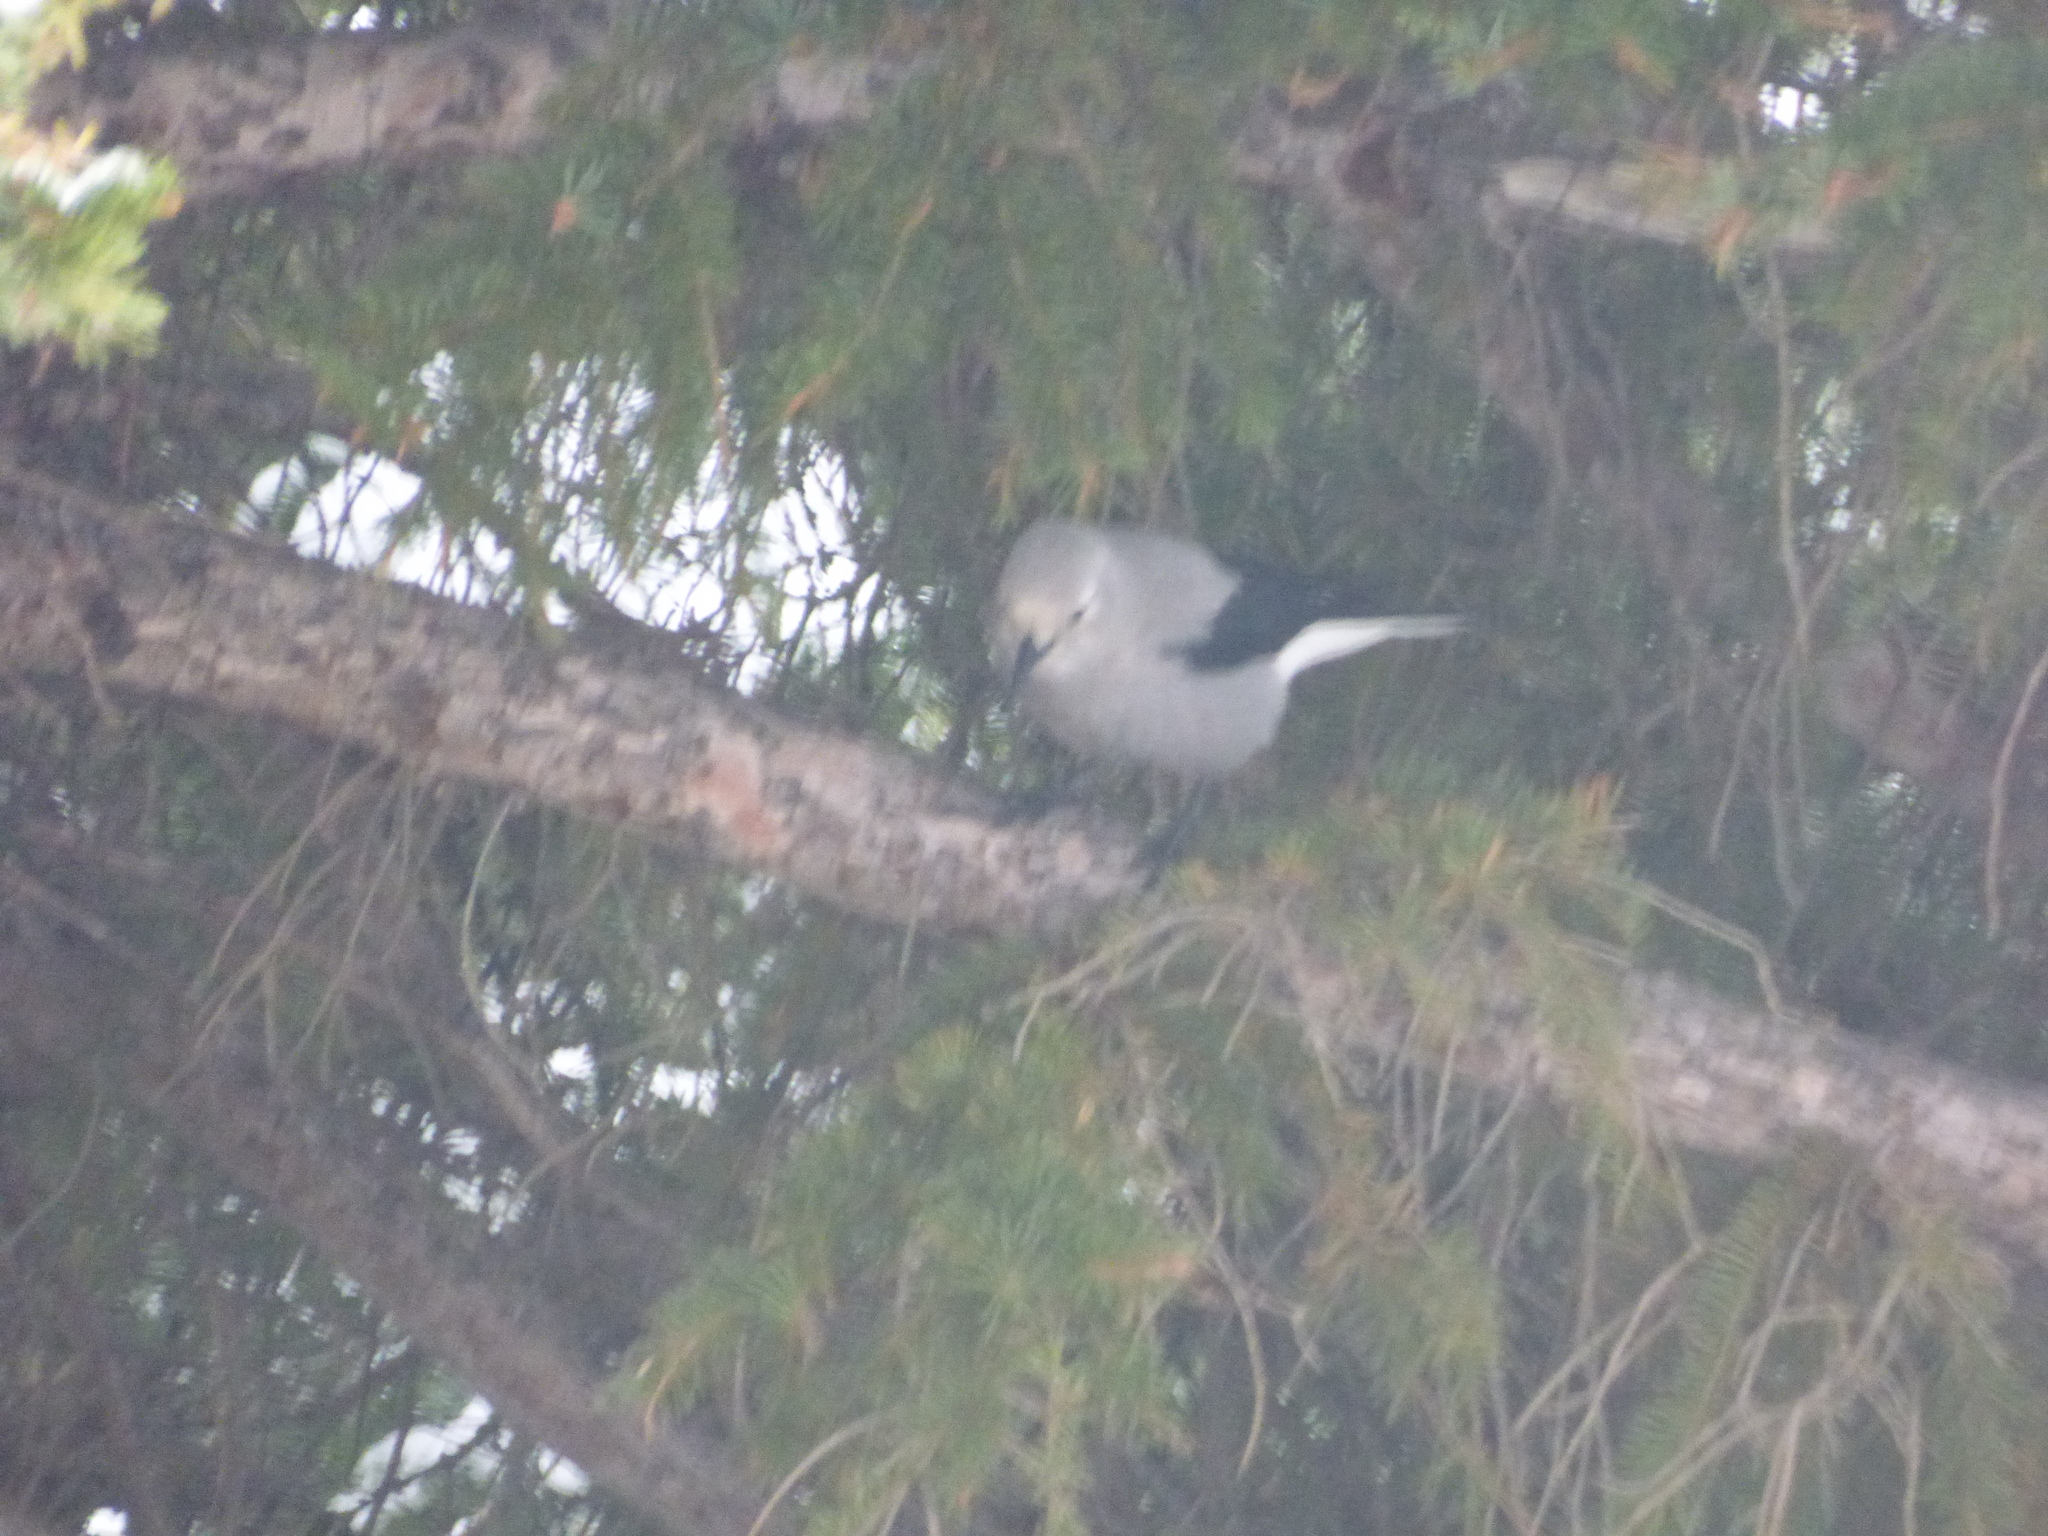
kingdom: Animalia
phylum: Chordata
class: Aves
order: Passeriformes
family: Corvidae
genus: Nucifraga
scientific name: Nucifraga columbiana
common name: Clark's nutcracker
